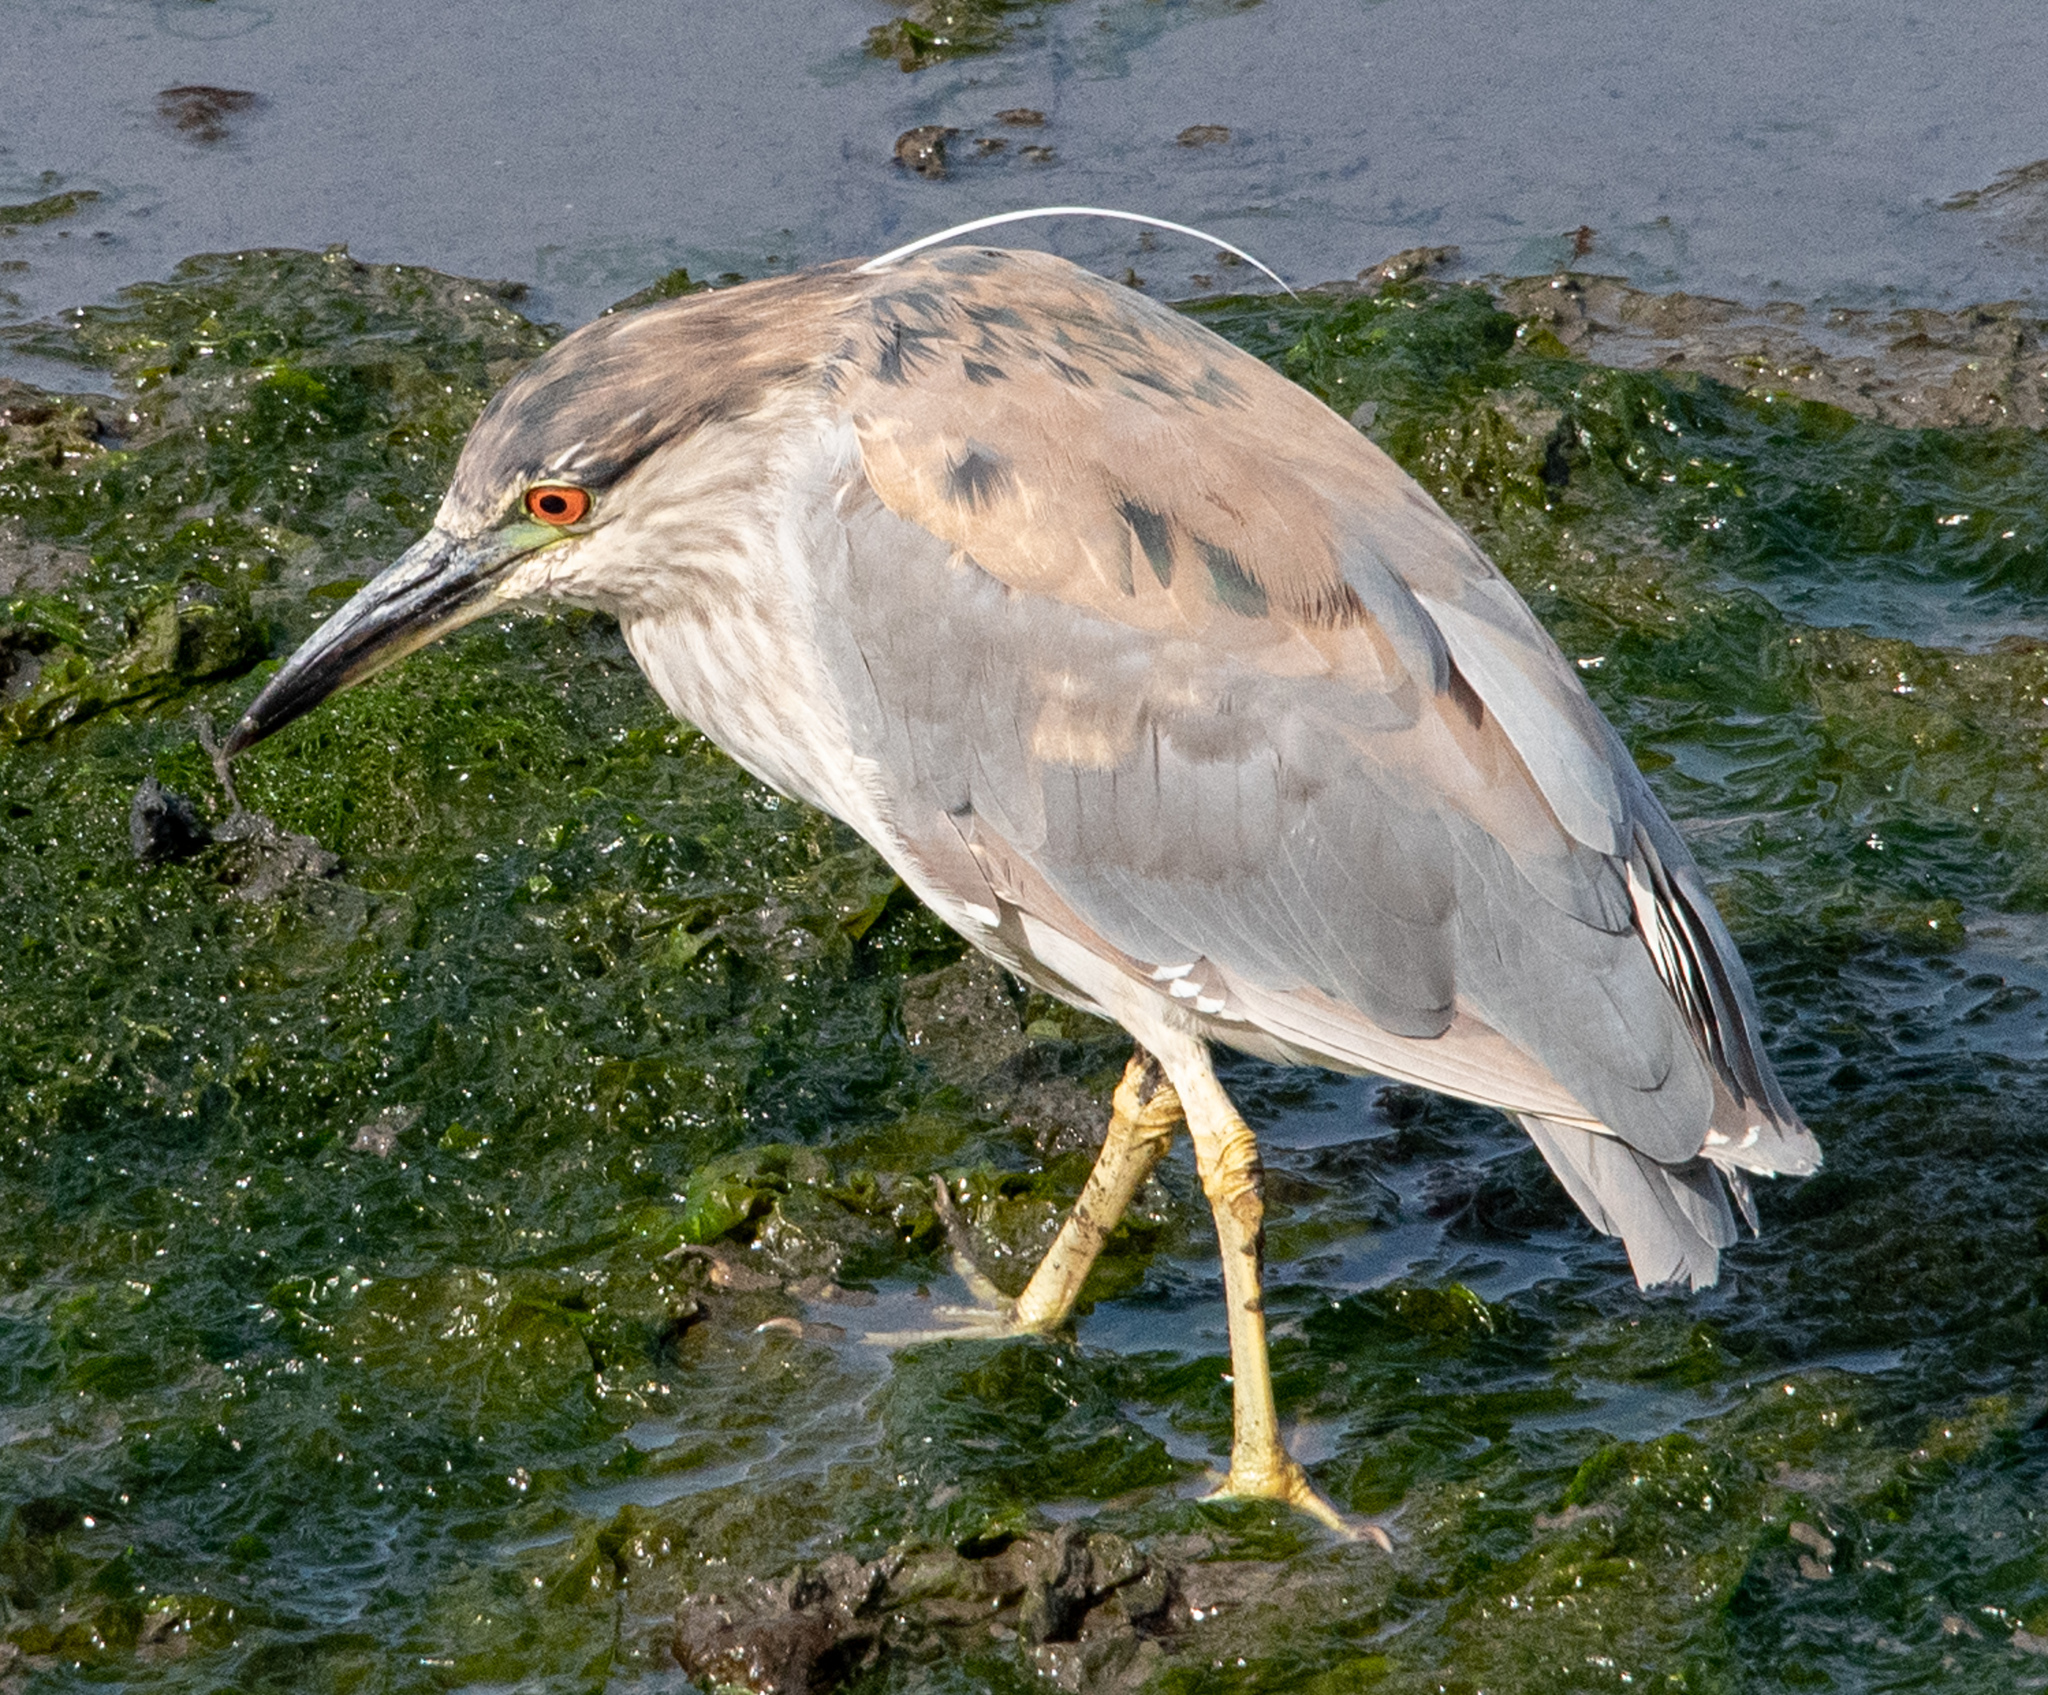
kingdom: Animalia
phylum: Chordata
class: Aves
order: Pelecaniformes
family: Ardeidae
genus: Nycticorax
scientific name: Nycticorax nycticorax
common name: Black-crowned night heron
